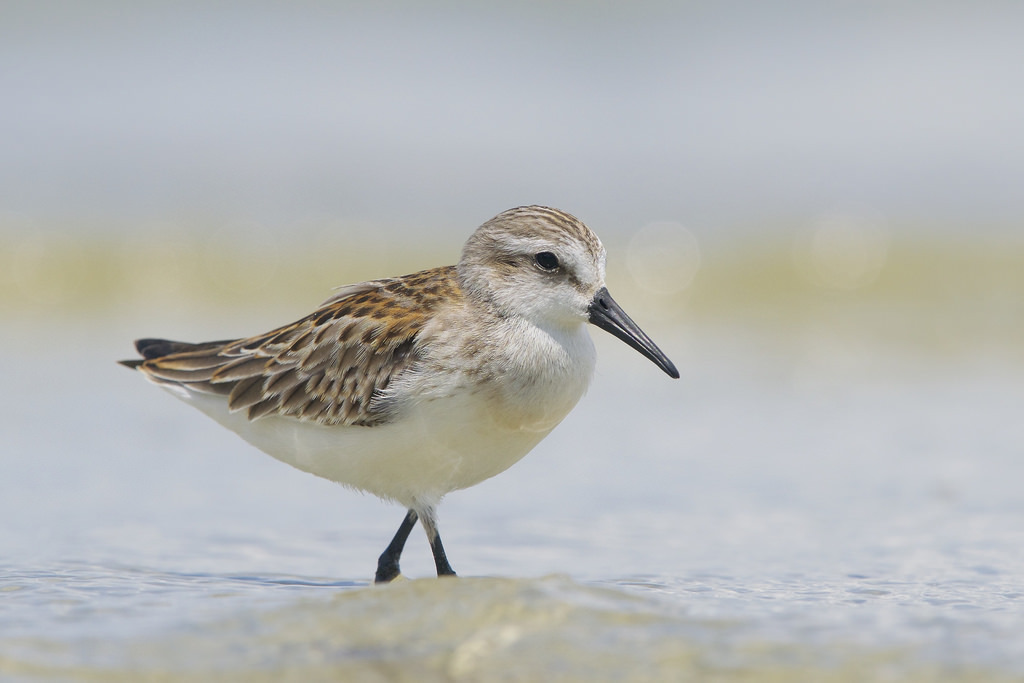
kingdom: Animalia
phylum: Chordata
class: Aves
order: Charadriiformes
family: Scolopacidae
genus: Calidris
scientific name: Calidris mauri
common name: Western sandpiper
